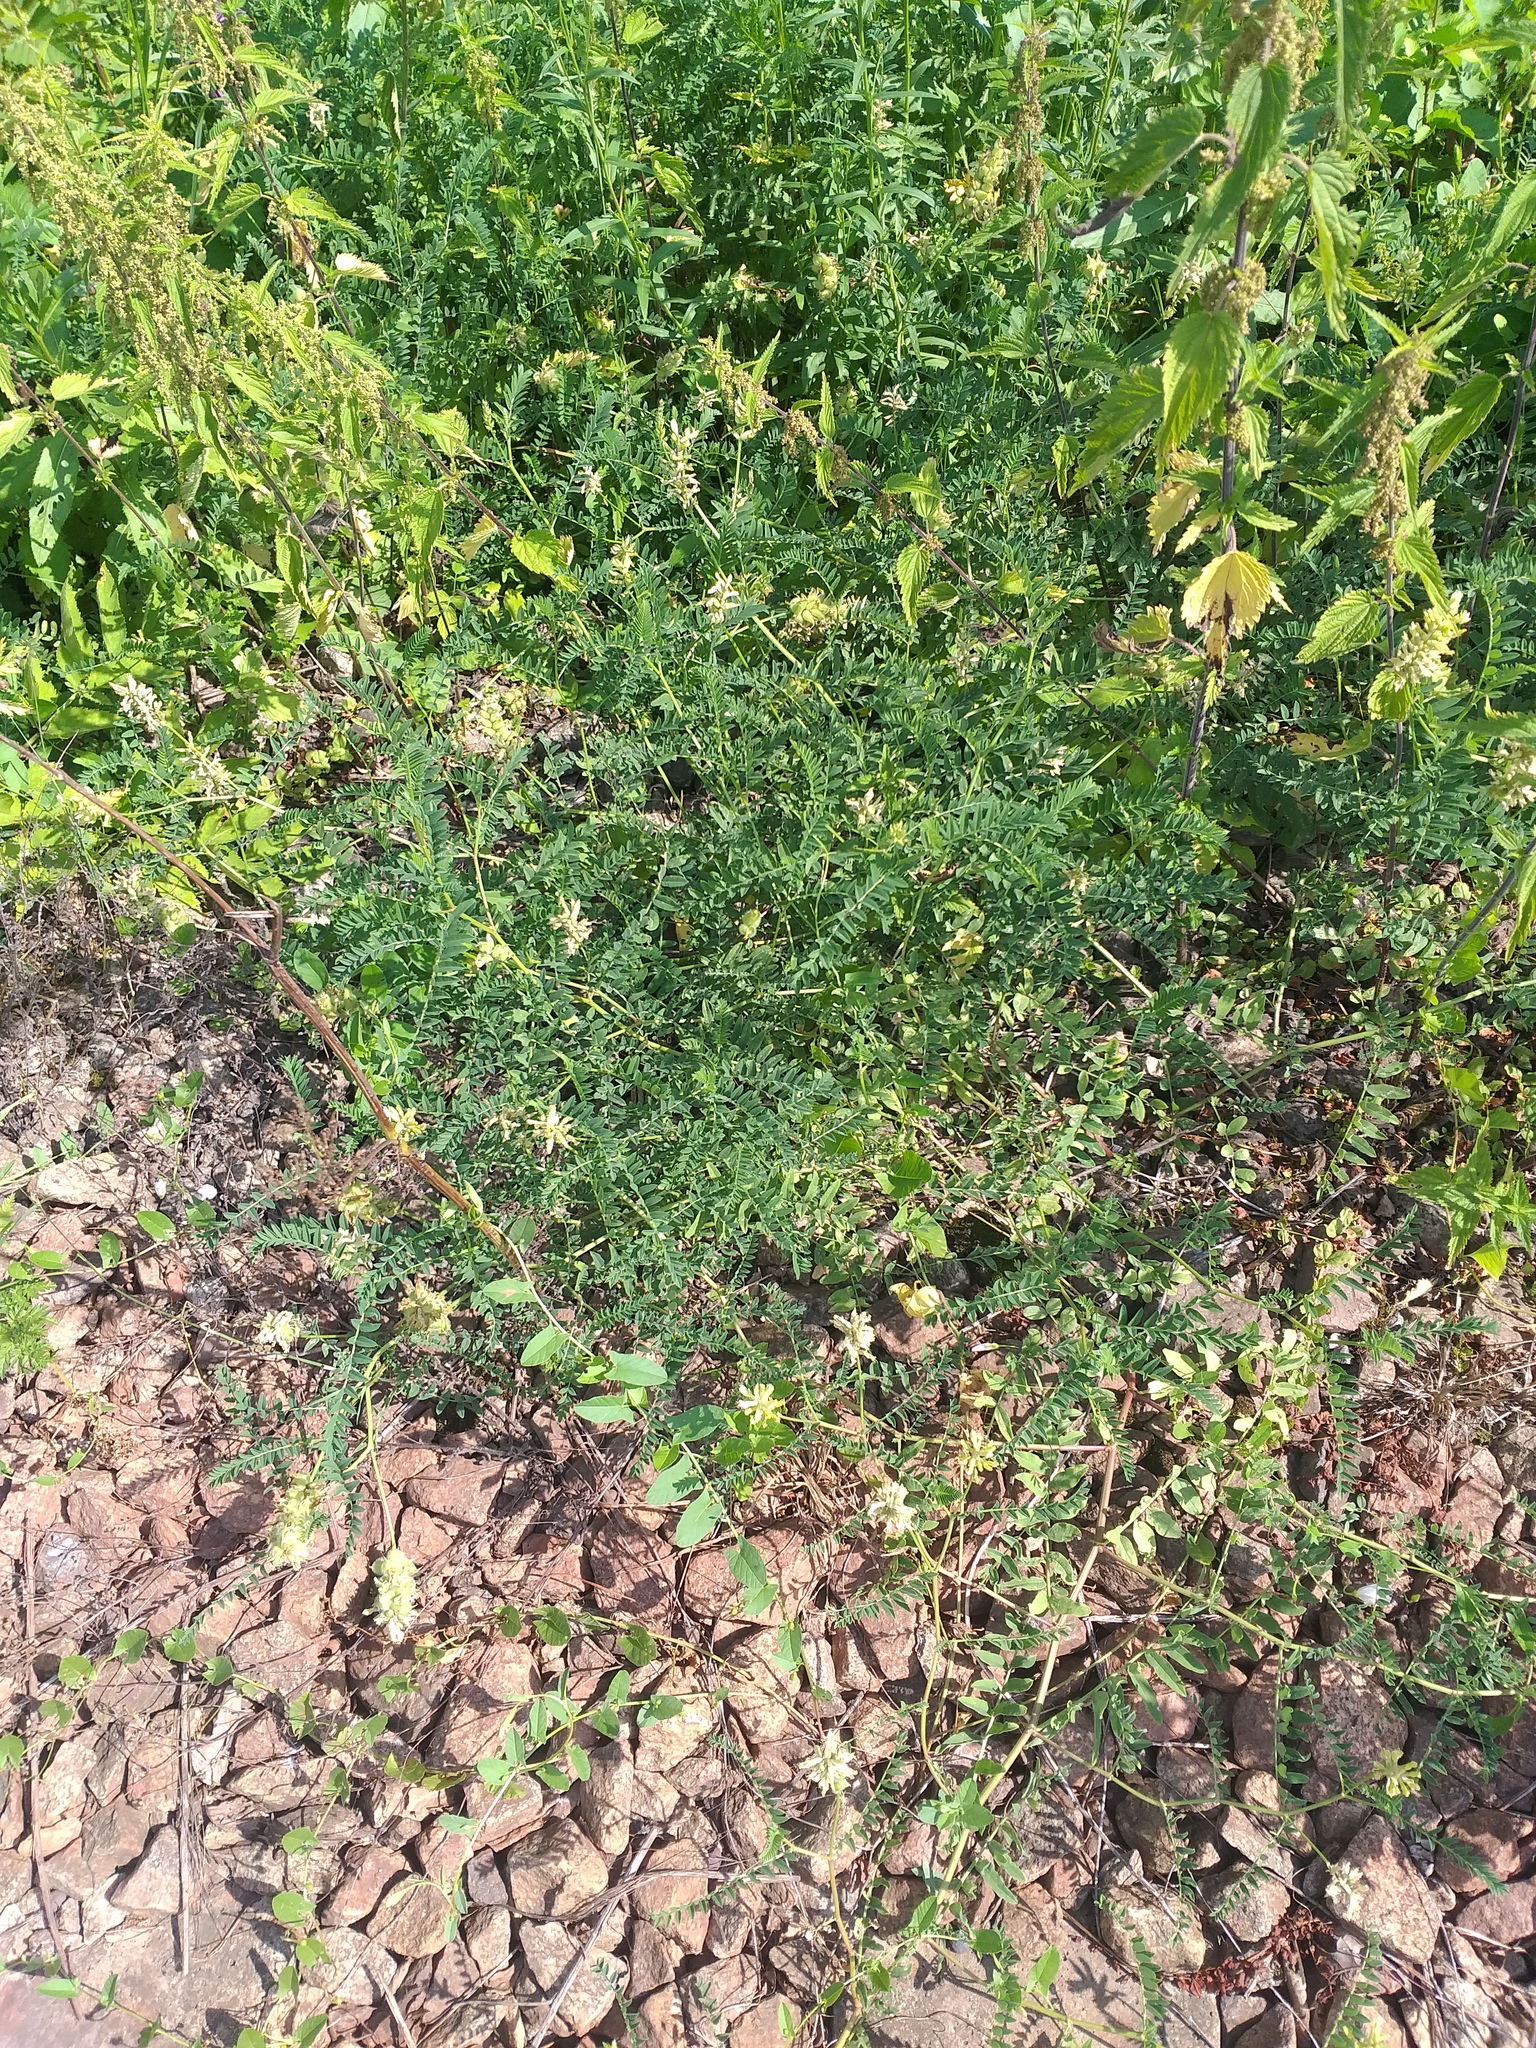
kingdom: Plantae
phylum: Tracheophyta
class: Magnoliopsida
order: Fabales
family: Fabaceae
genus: Astragalus
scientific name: Astragalus cicer
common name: Chick-pea milk-vetch
